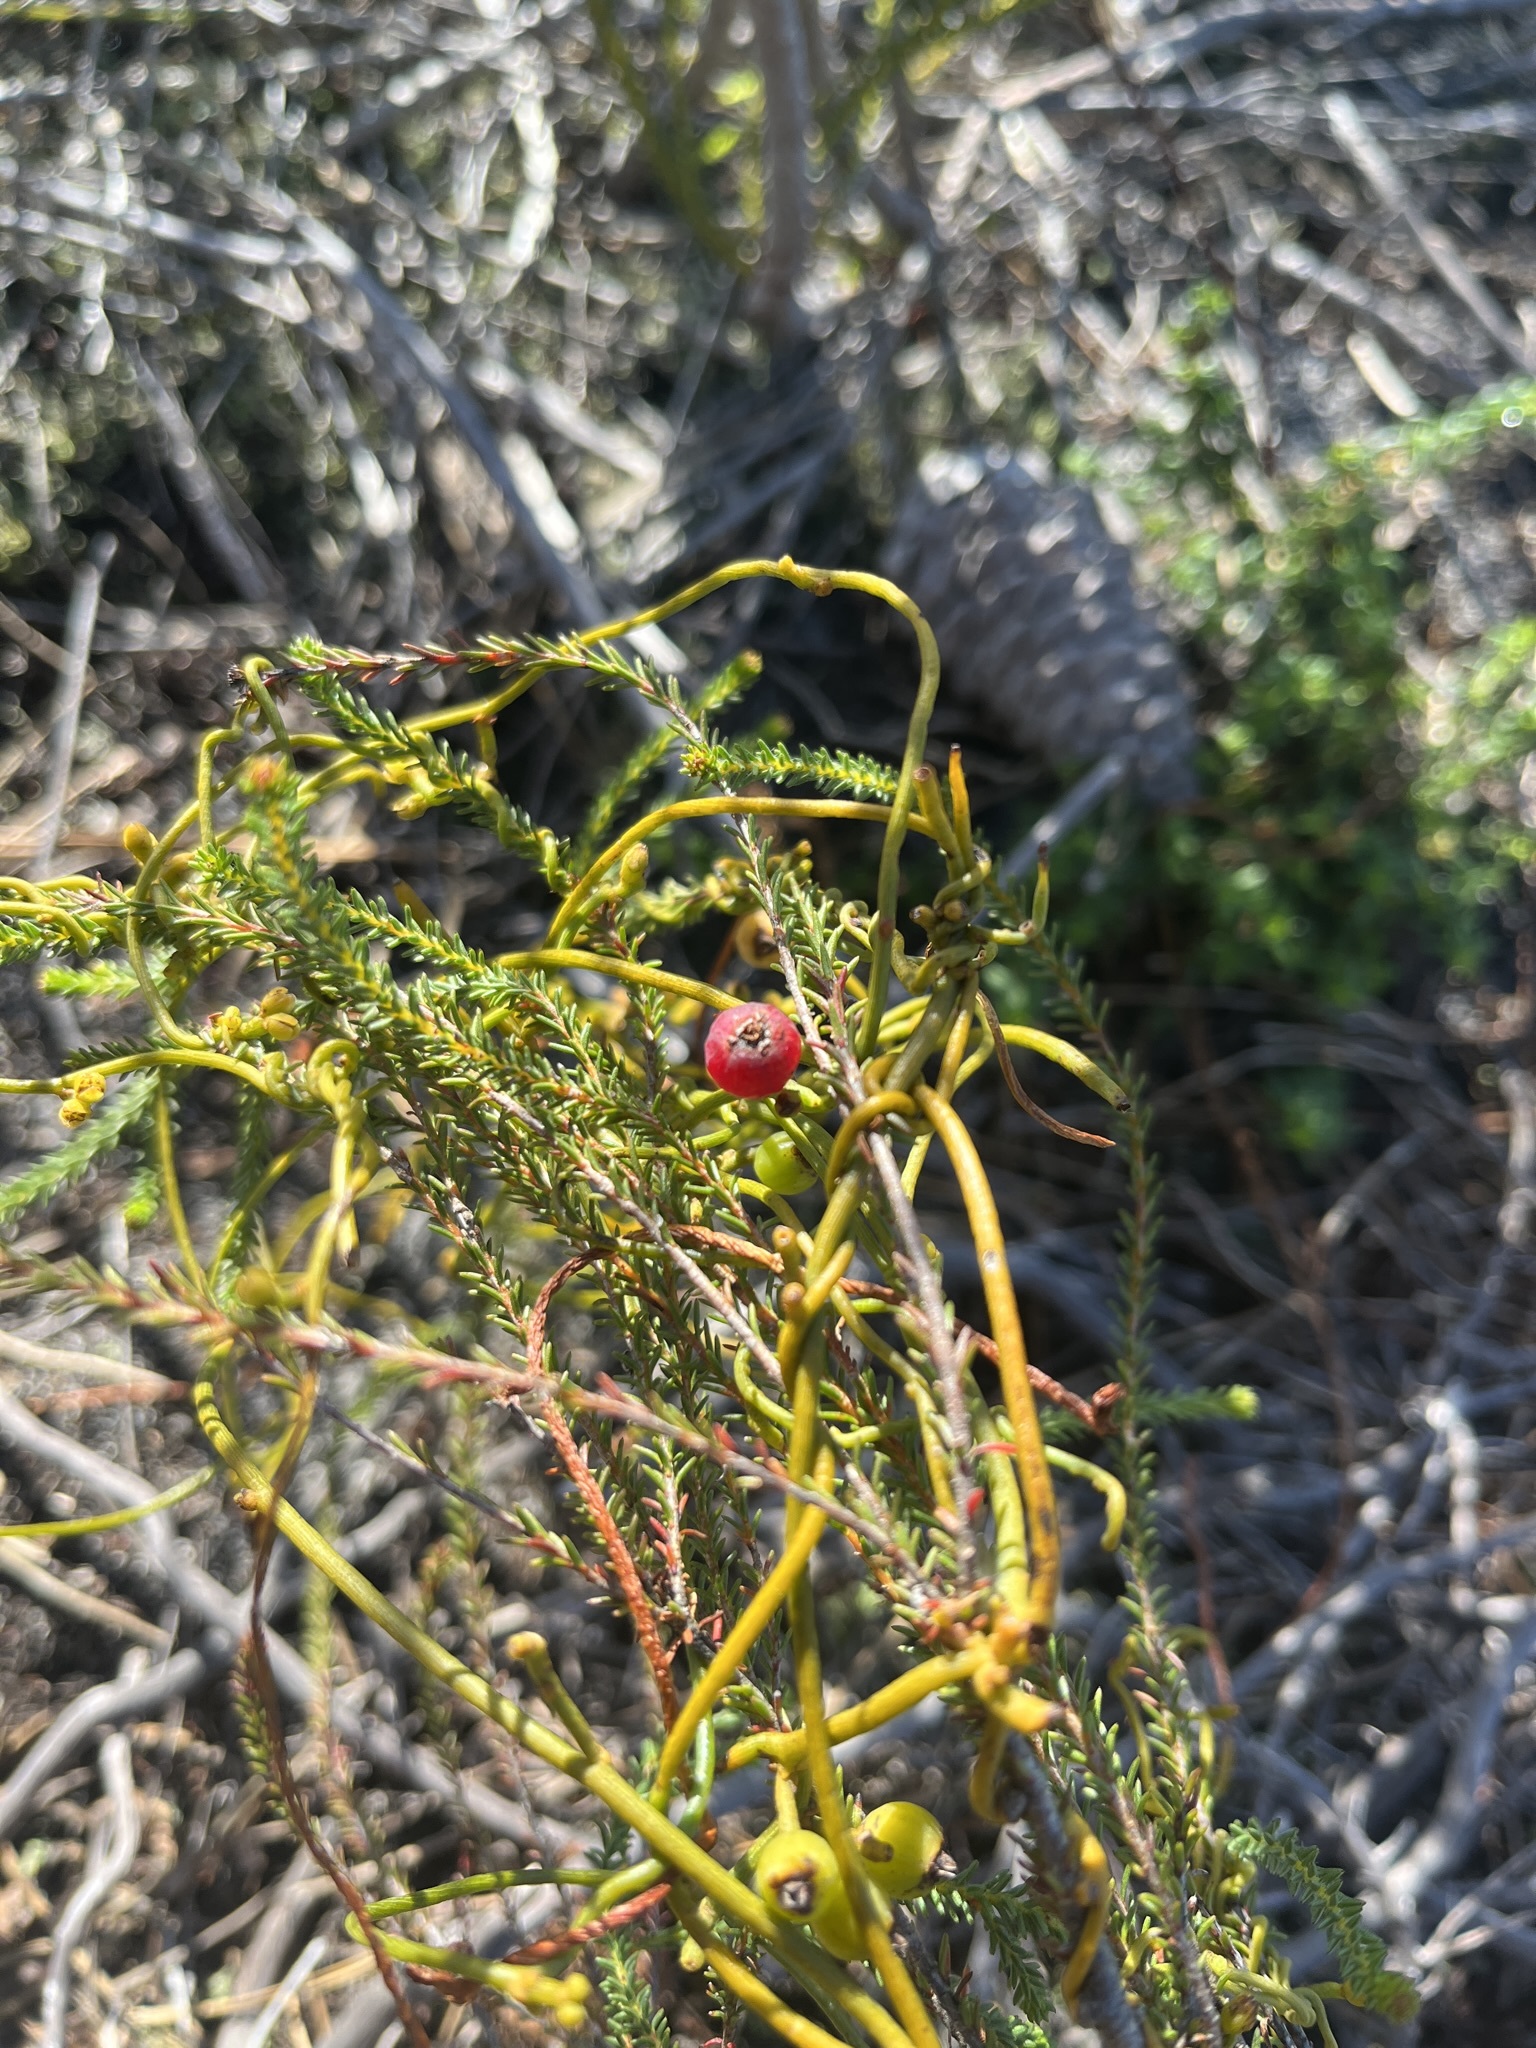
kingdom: Plantae
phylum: Tracheophyta
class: Magnoliopsida
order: Laurales
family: Lauraceae
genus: Cassytha
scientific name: Cassytha ciliolata
